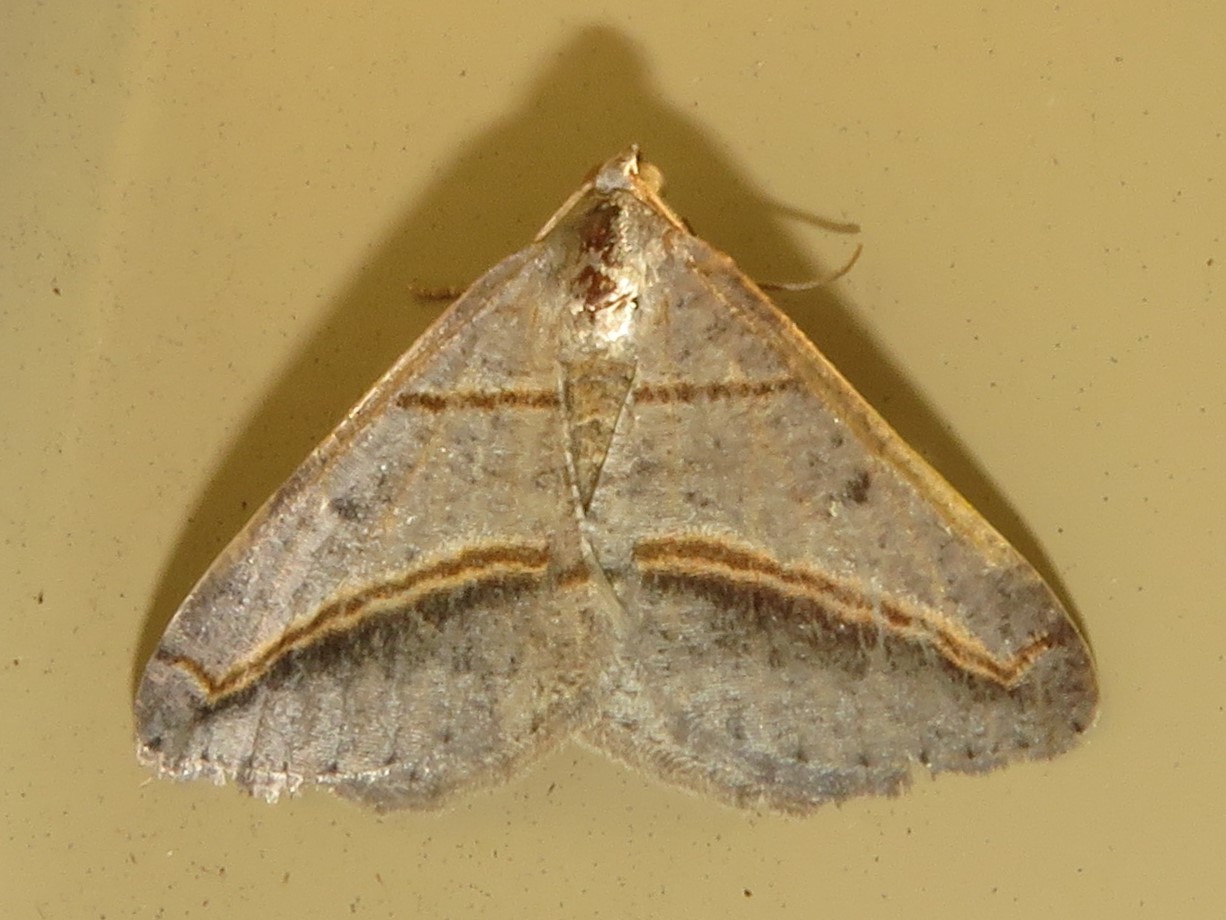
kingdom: Animalia
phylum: Arthropoda
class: Insecta
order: Lepidoptera
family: Geometridae
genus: Digrammia
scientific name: Digrammia mellistrigata
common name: Yellow-lined angle
